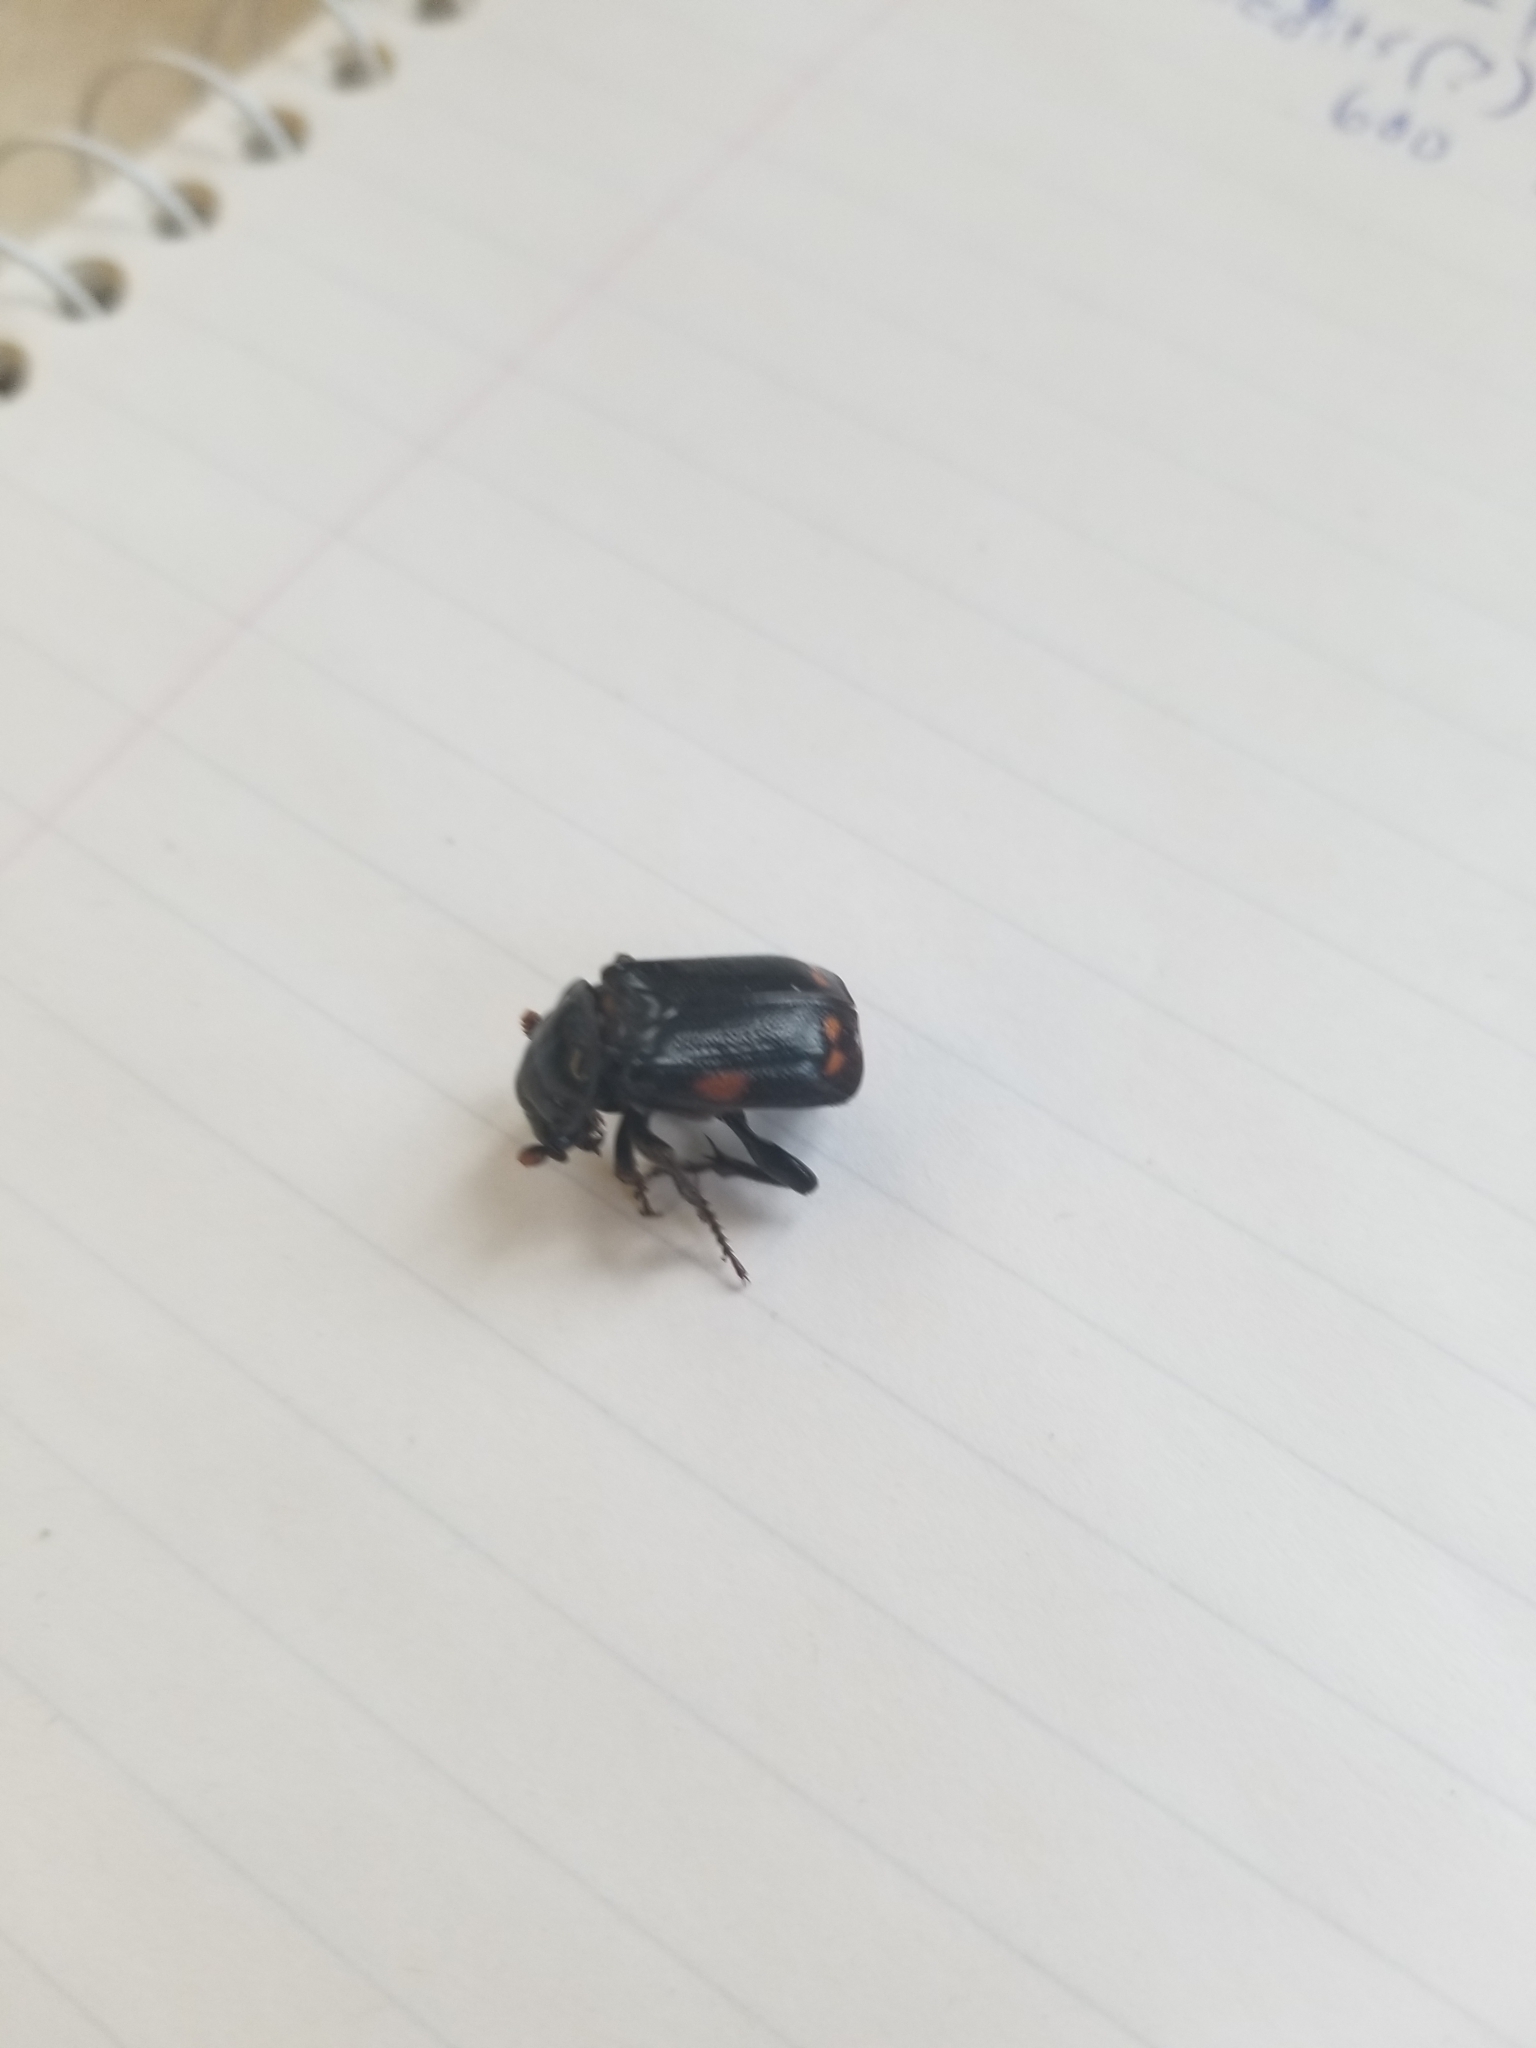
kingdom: Animalia
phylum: Arthropoda
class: Insecta
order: Coleoptera
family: Staphylinidae
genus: Nicrophorus
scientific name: Nicrophorus pustulatus
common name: Pustulated carrion beetle
